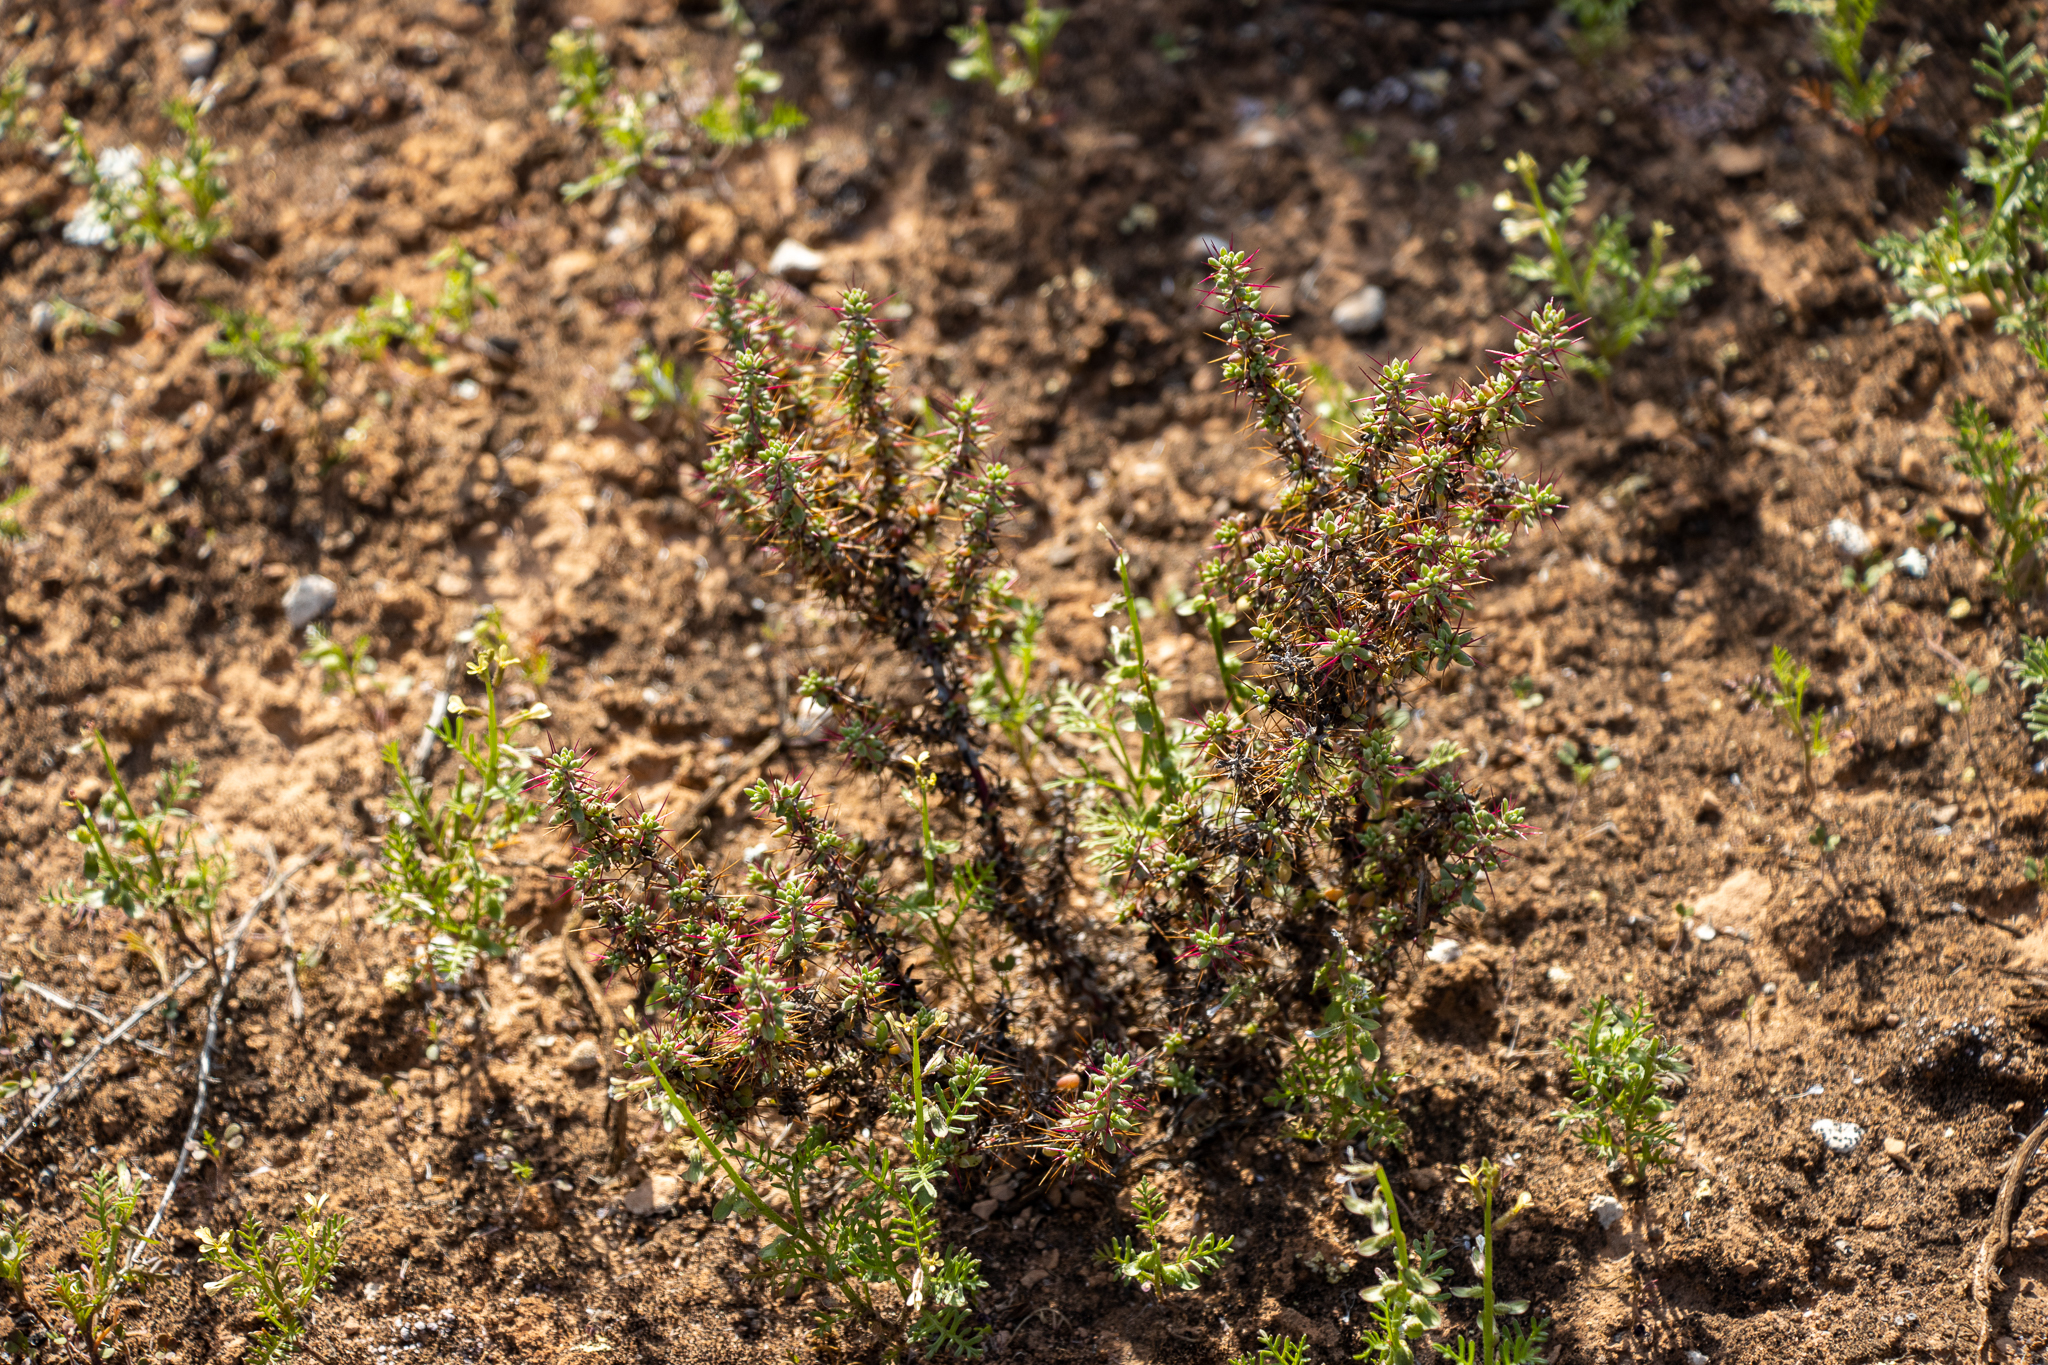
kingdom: Plantae
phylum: Tracheophyta
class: Magnoliopsida
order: Caryophyllales
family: Amaranthaceae
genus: Sclerolaena
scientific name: Sclerolaena brevifolia
